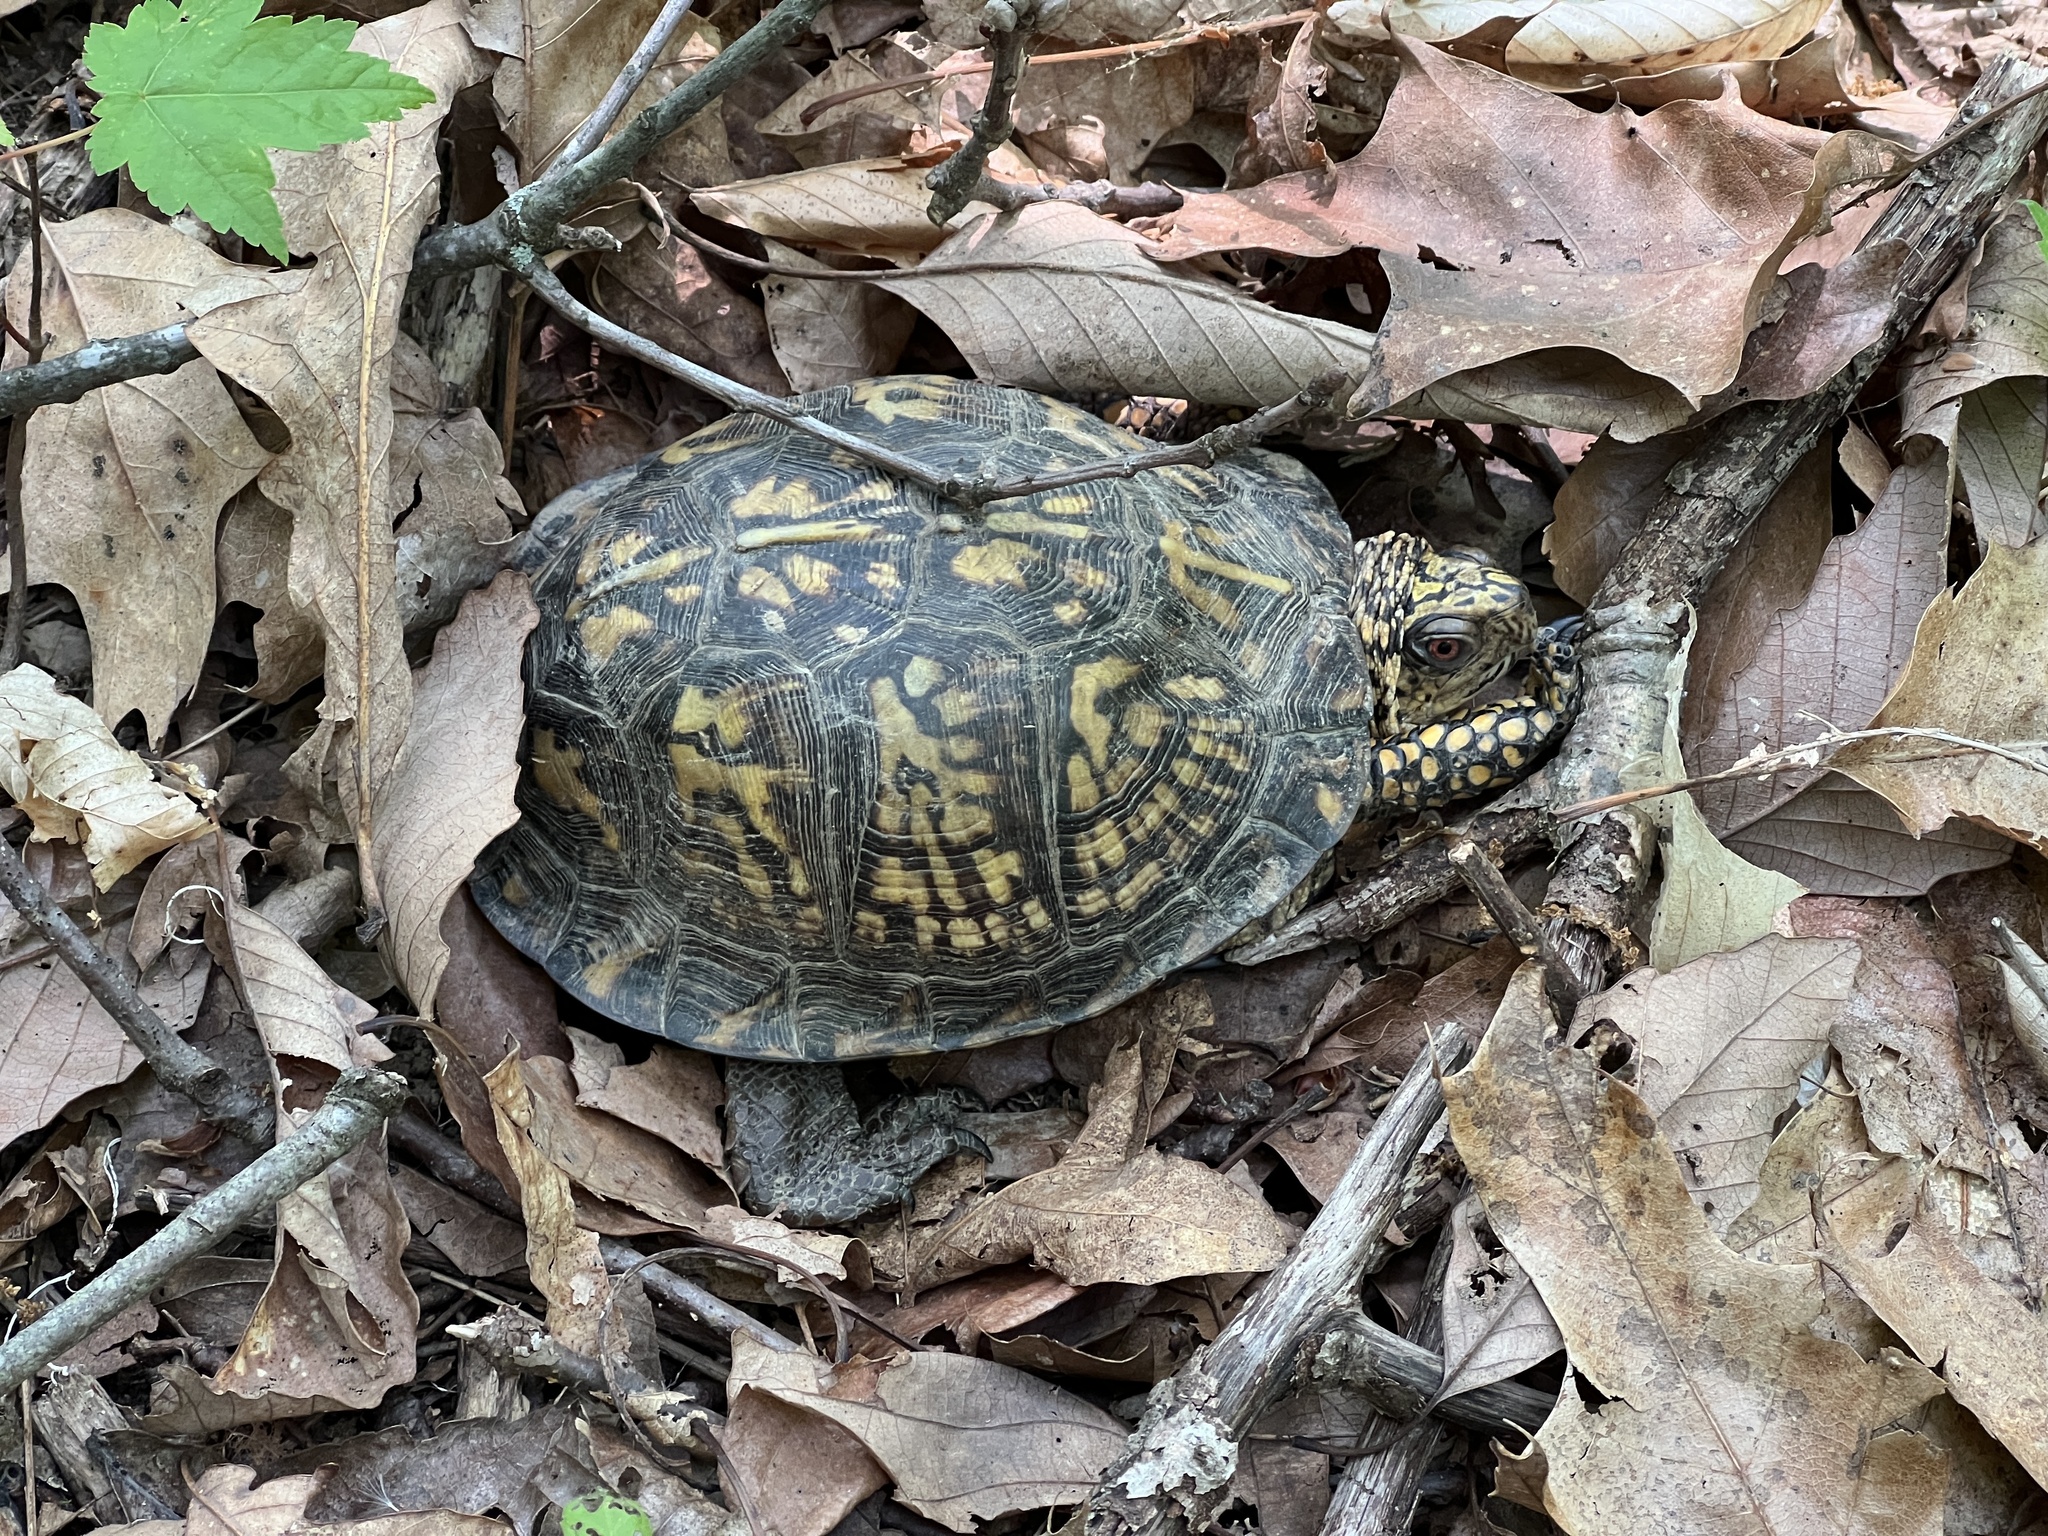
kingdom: Animalia
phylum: Chordata
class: Testudines
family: Emydidae
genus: Terrapene
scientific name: Terrapene carolina
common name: Common box turtle
